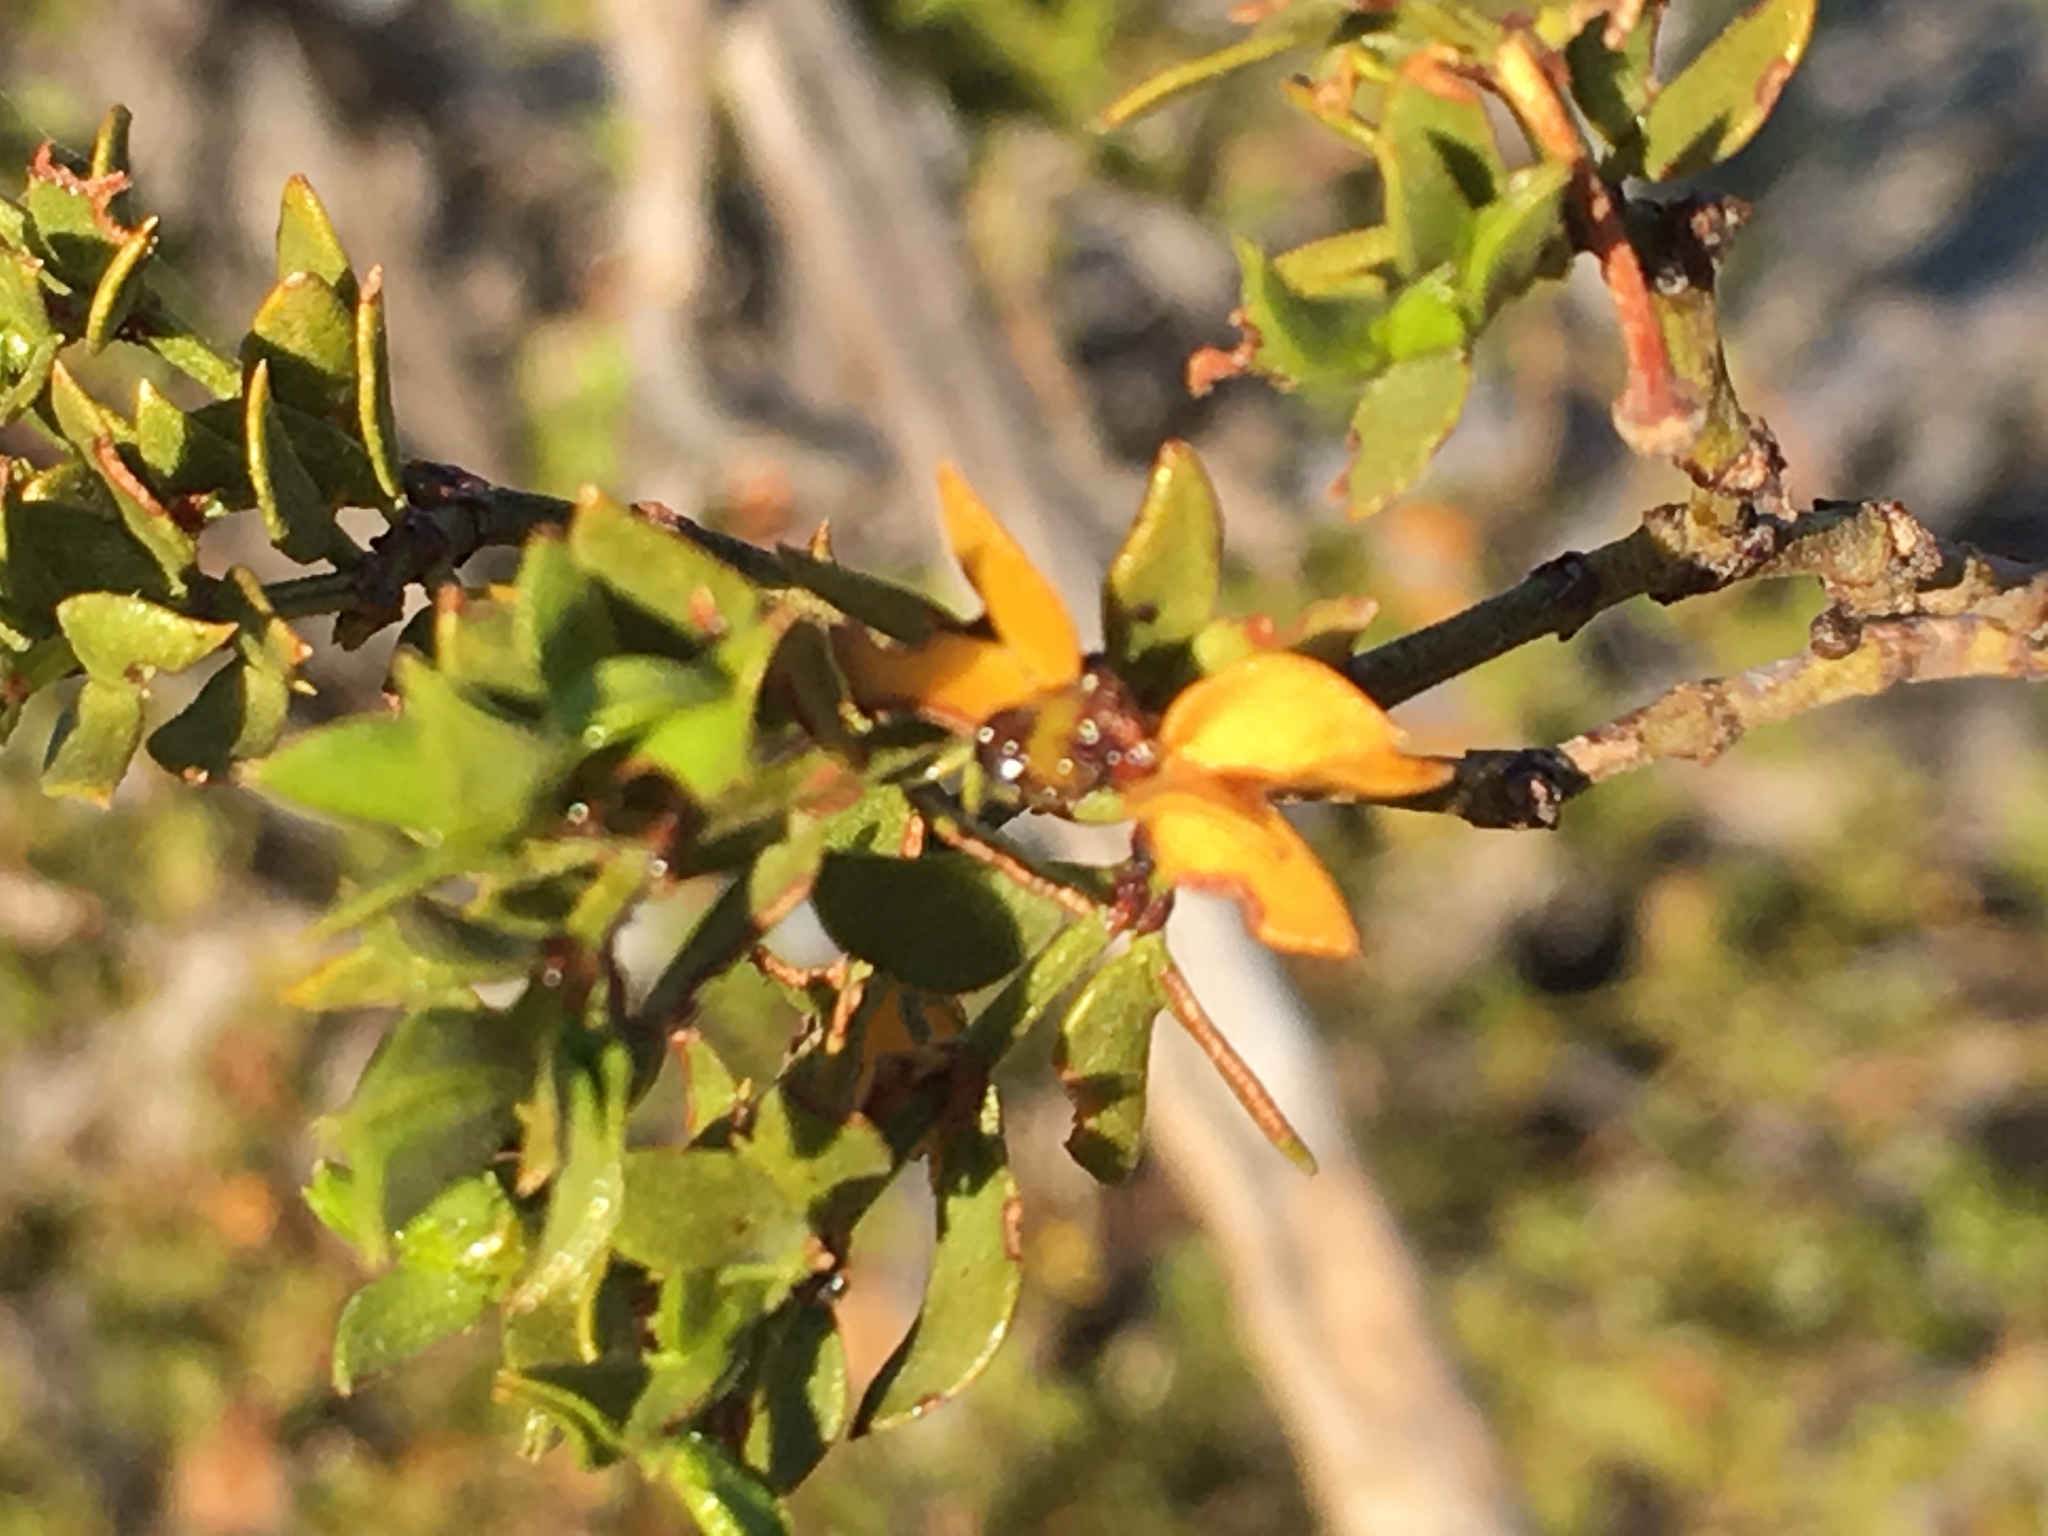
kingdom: Plantae
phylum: Tracheophyta
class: Magnoliopsida
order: Zygophyllales
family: Zygophyllaceae
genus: Larrea
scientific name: Larrea tridentata
